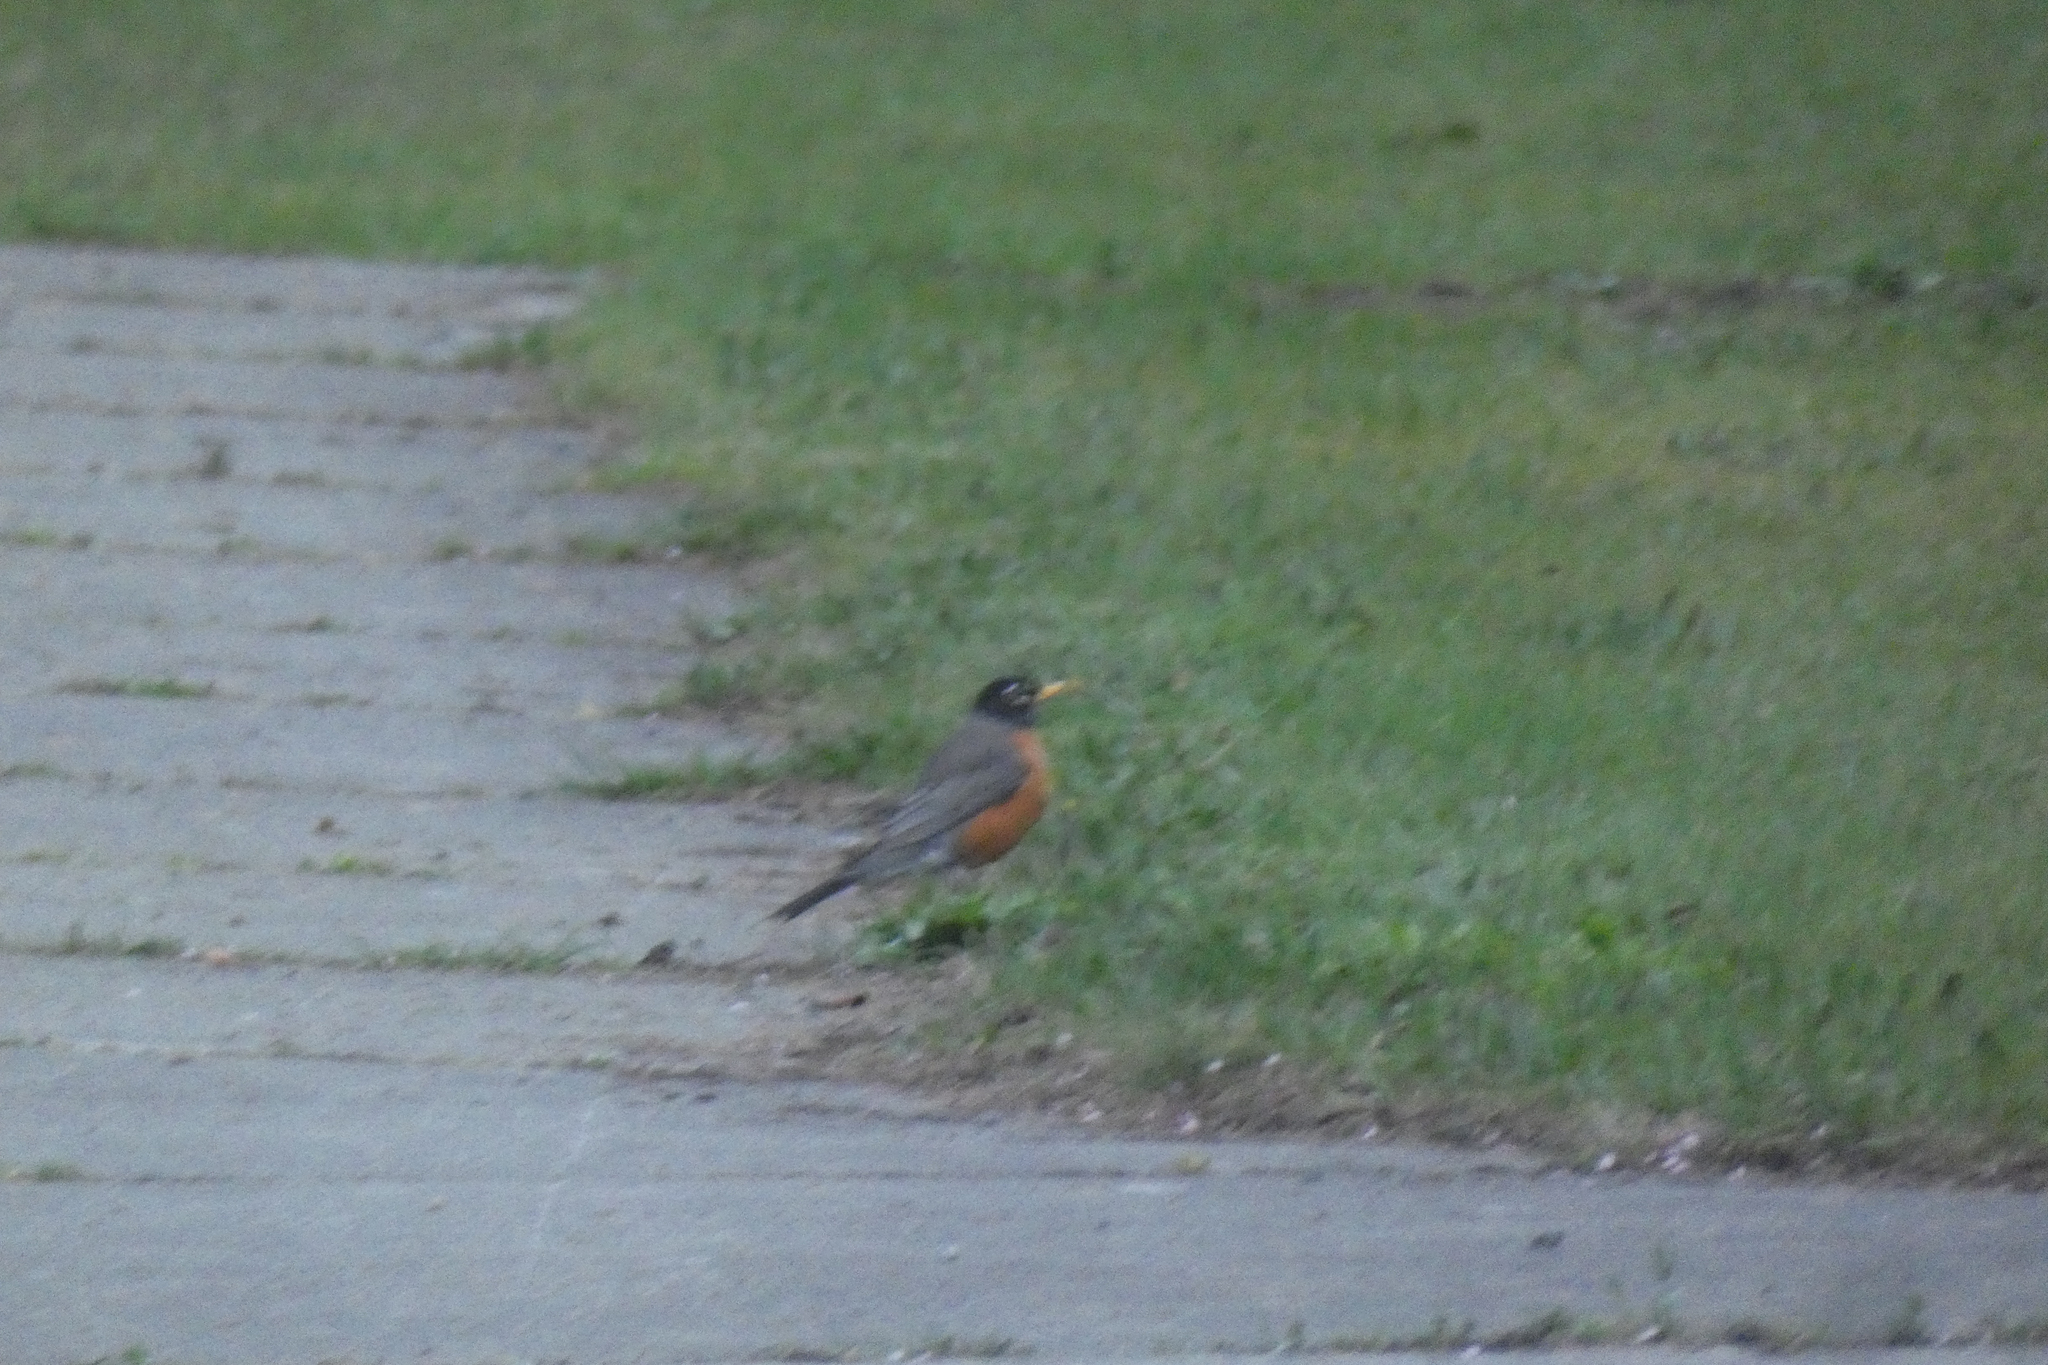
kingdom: Animalia
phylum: Chordata
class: Aves
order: Passeriformes
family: Turdidae
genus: Turdus
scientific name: Turdus migratorius
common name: American robin
